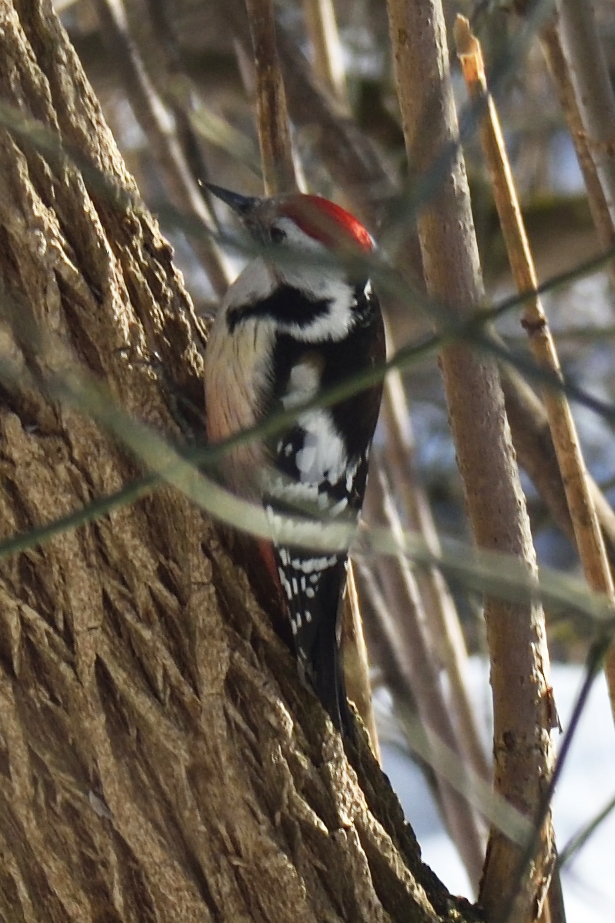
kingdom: Animalia
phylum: Chordata
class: Aves
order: Piciformes
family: Picidae
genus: Dendrocoptes
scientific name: Dendrocoptes medius
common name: Middle spotted woodpecker
